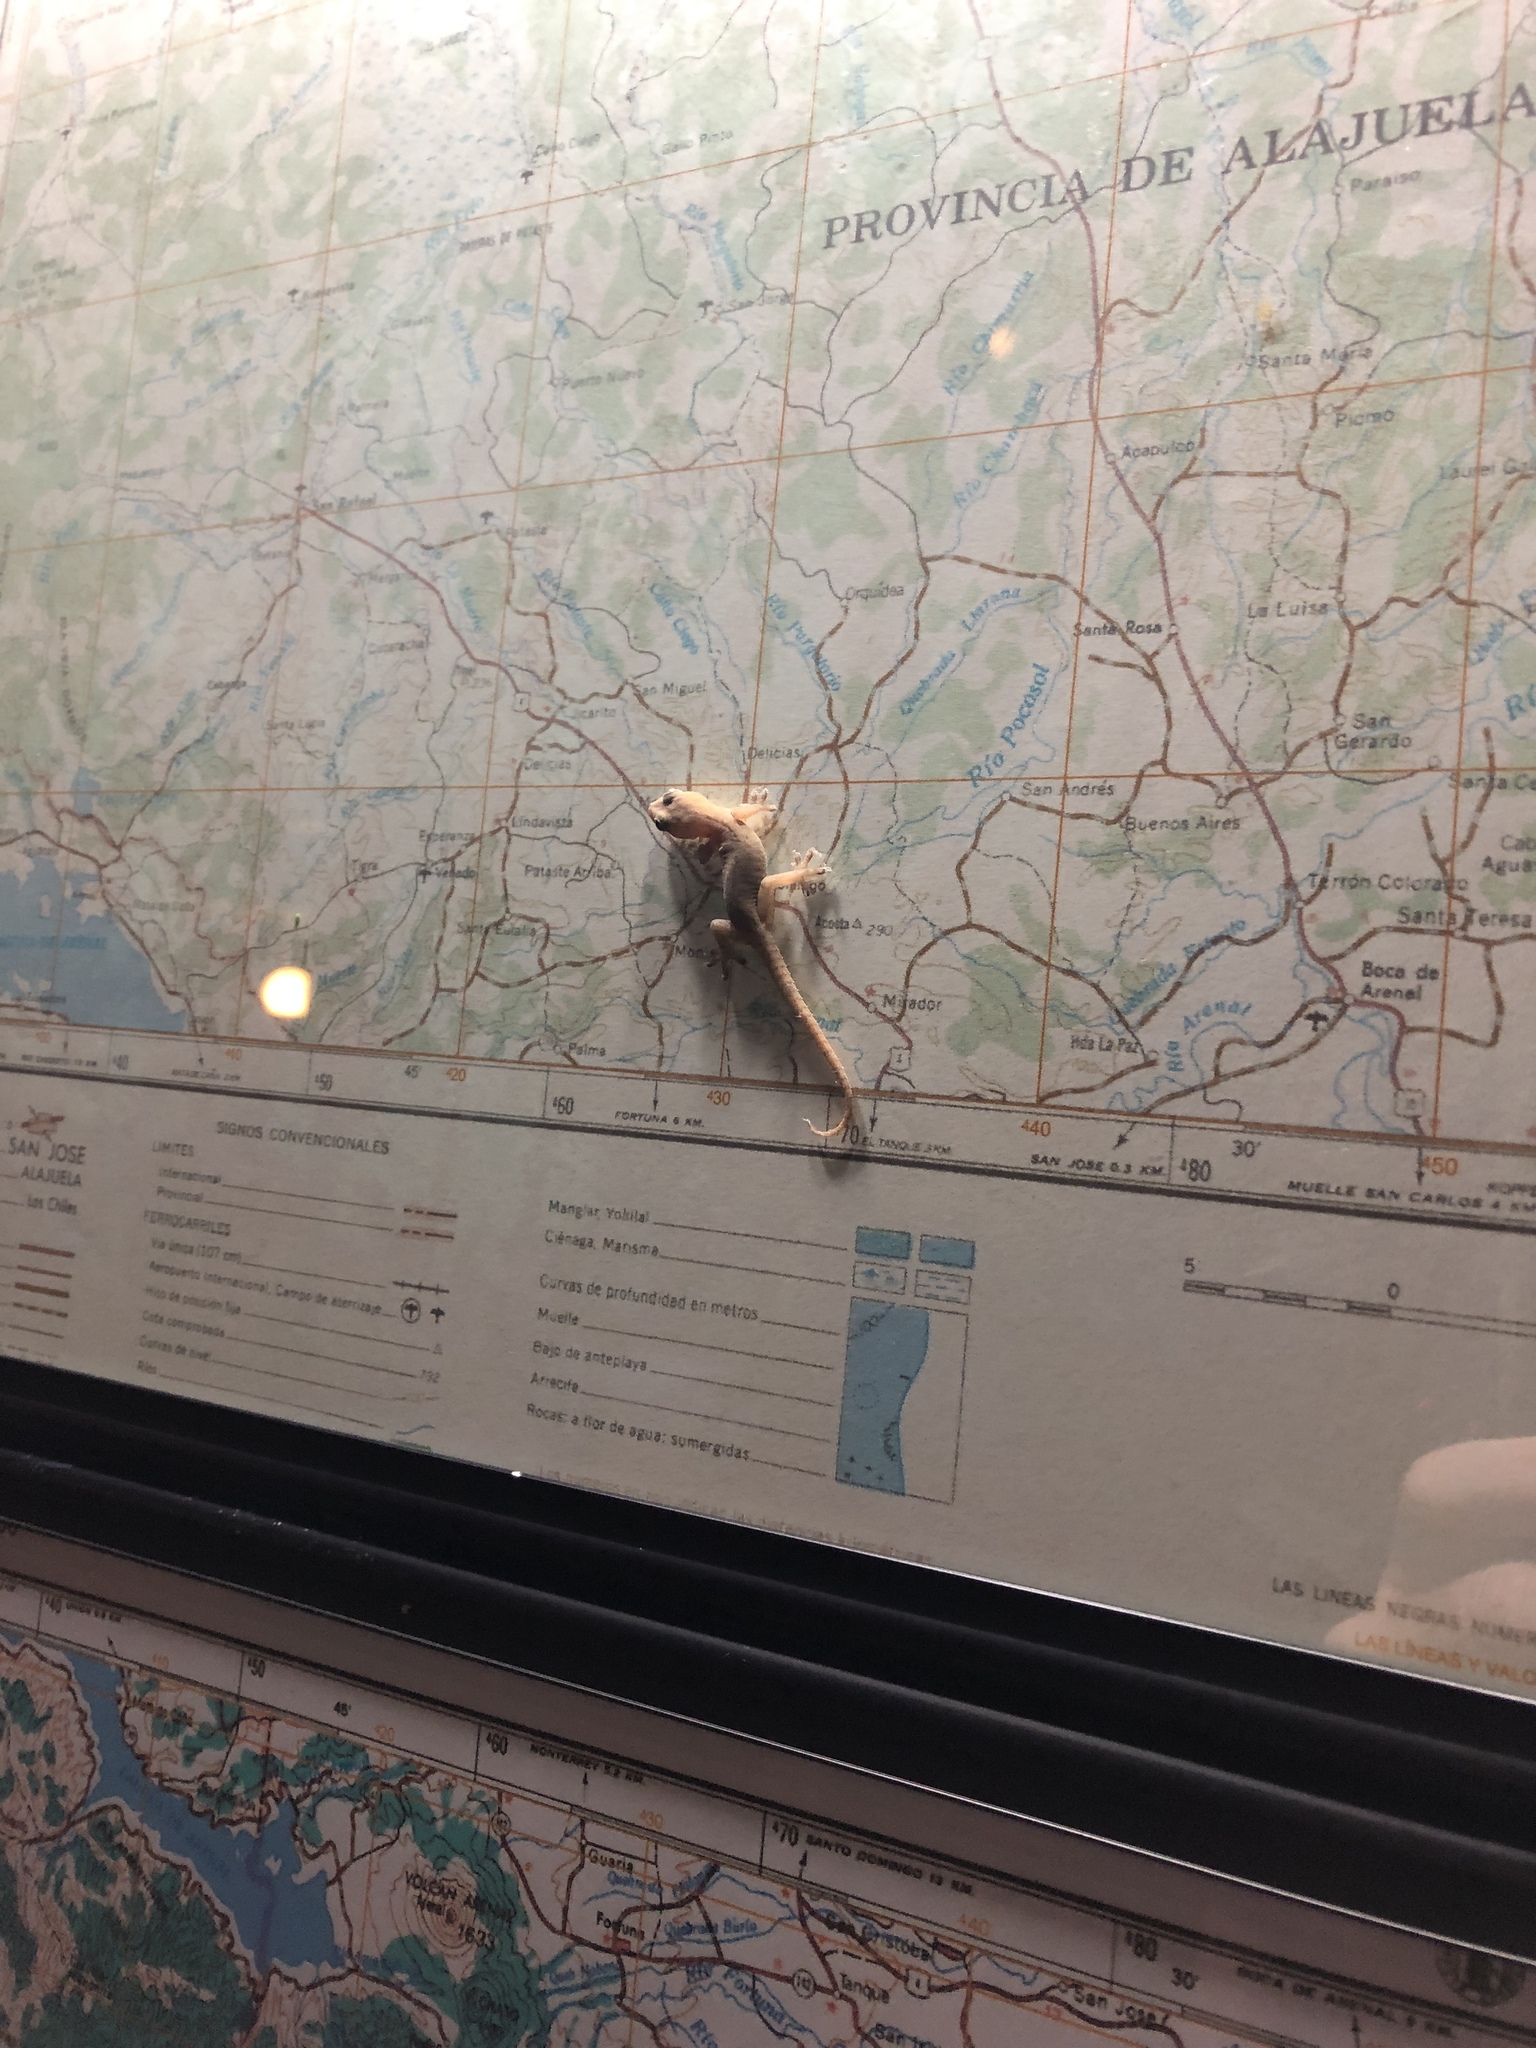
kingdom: Animalia
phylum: Chordata
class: Squamata
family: Gekkonidae
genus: Hemidactylus
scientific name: Hemidactylus frenatus
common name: Common house gecko
